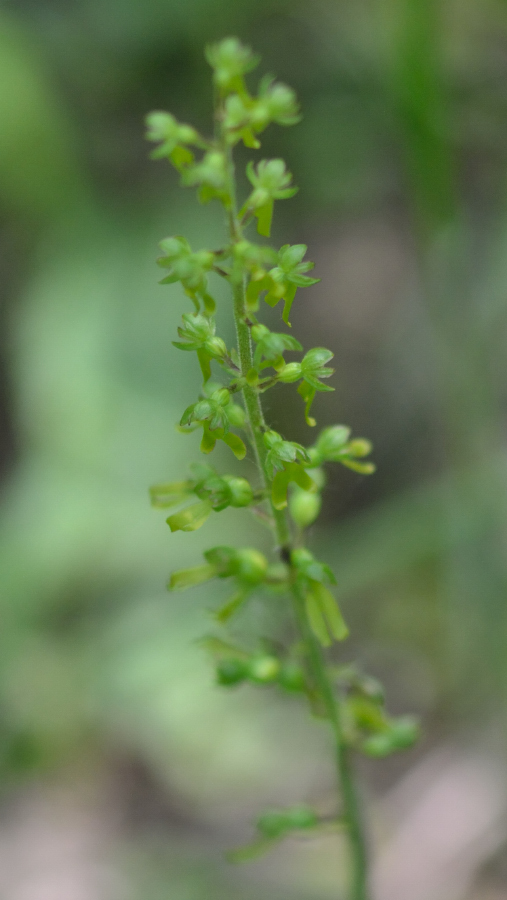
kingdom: Plantae
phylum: Tracheophyta
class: Liliopsida
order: Asparagales
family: Orchidaceae
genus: Neottia
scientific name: Neottia ovata
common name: Common twayblade
